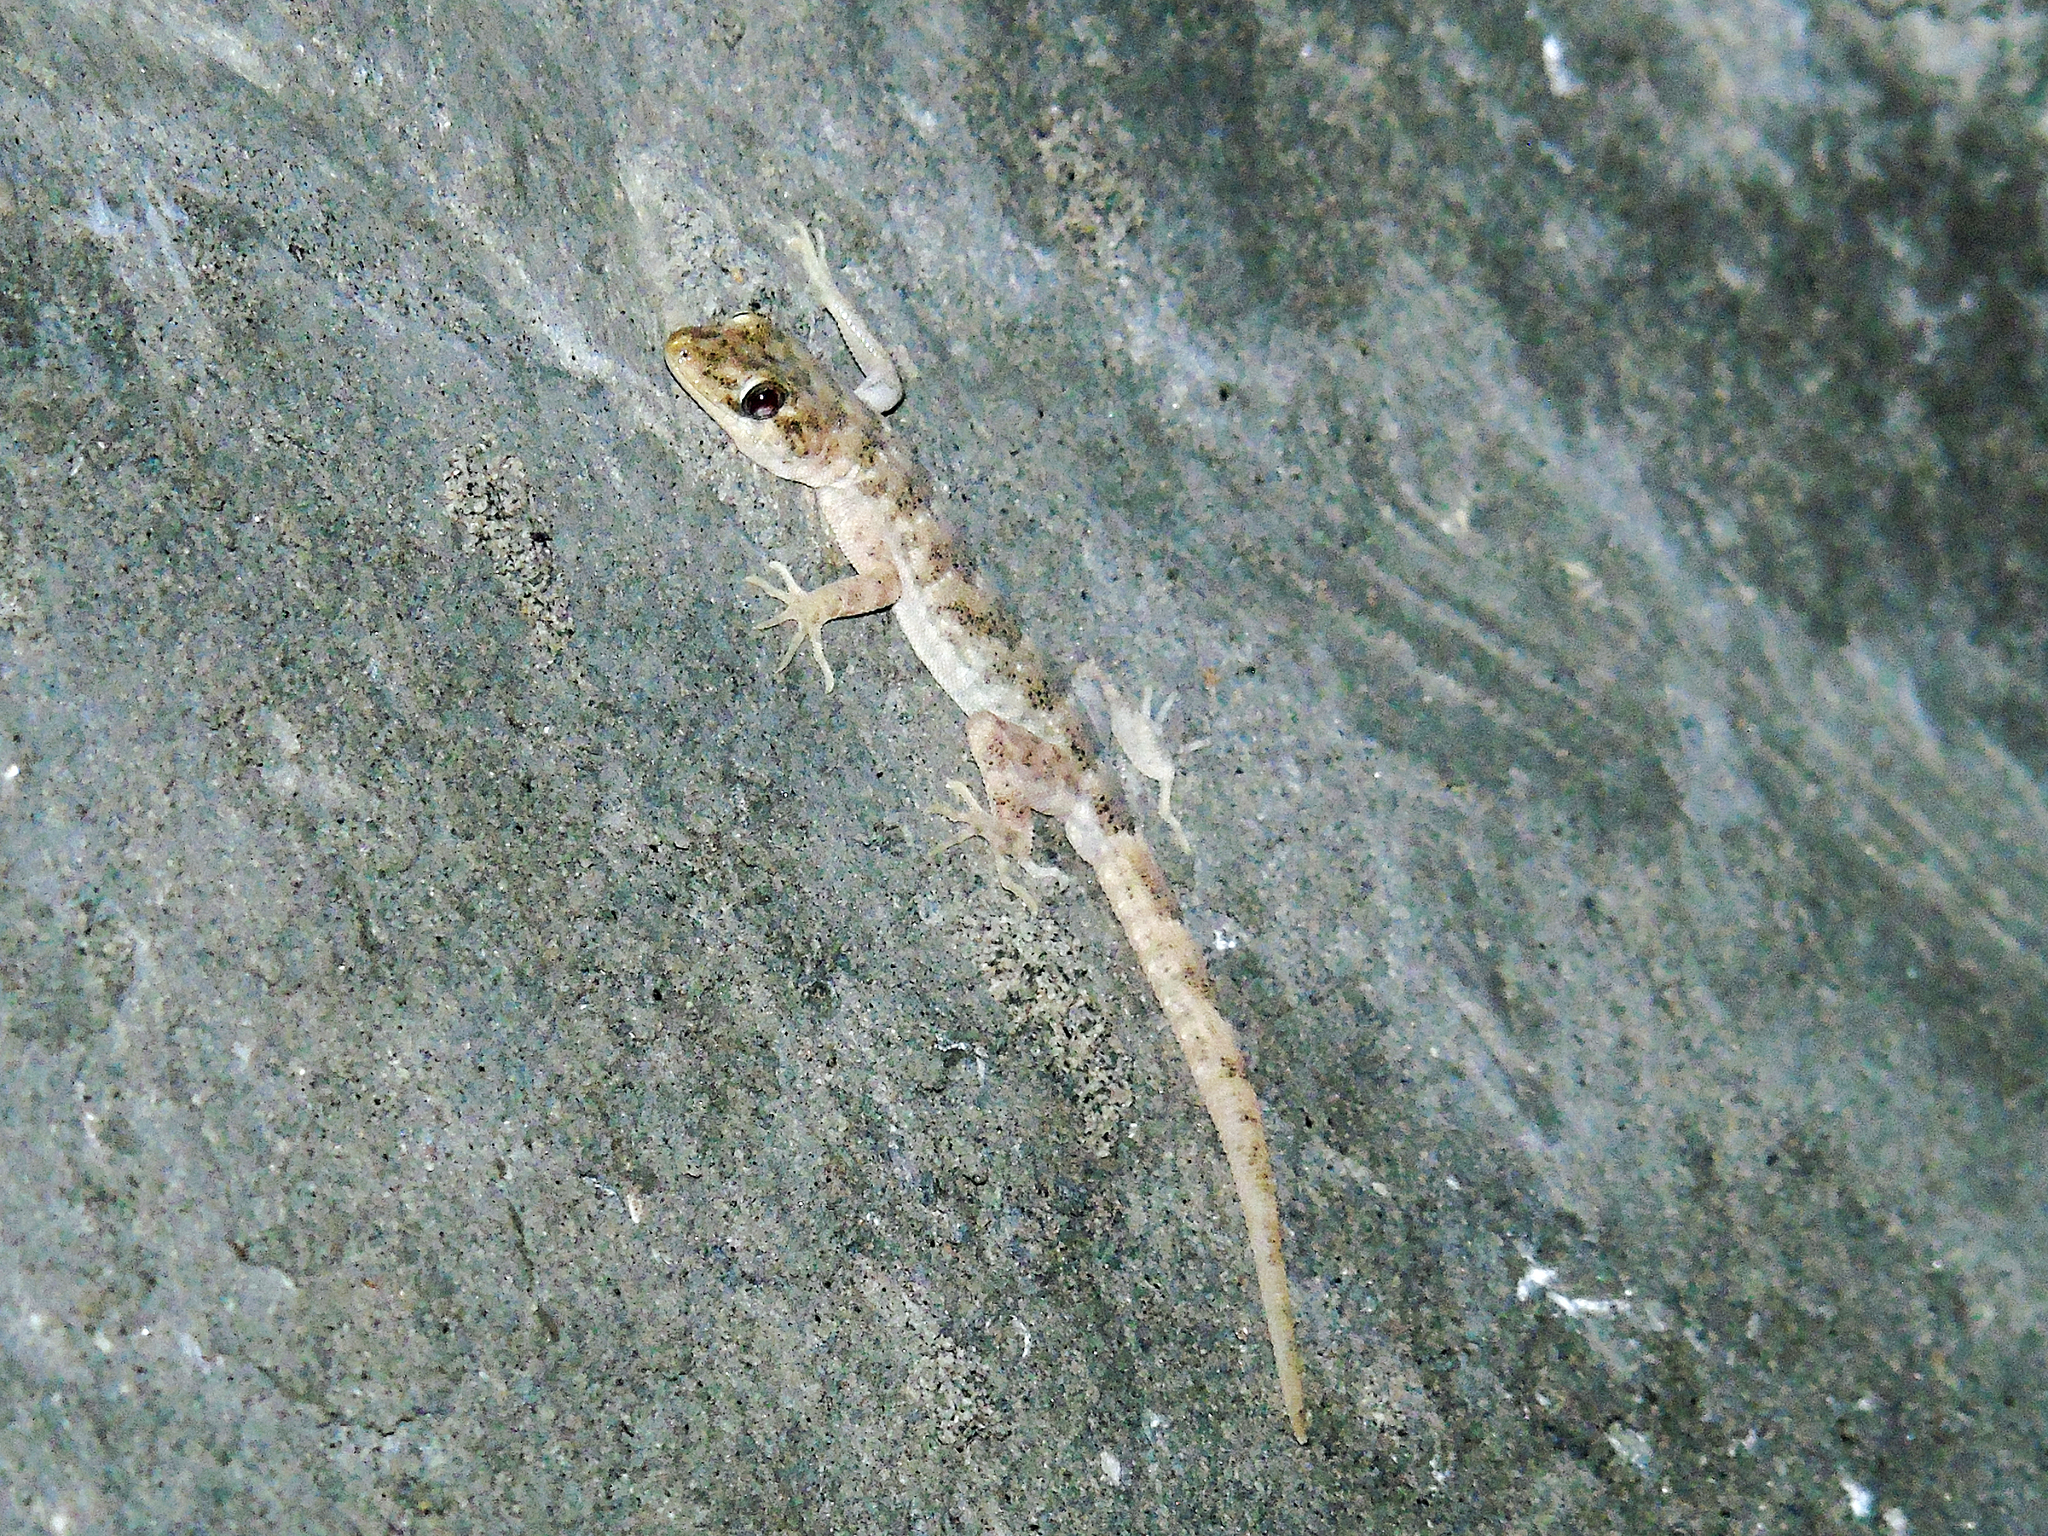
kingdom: Animalia
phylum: Chordata
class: Squamata
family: Gekkonidae
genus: Altiphylax
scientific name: Altiphylax stoliczkai
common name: Frontier bow-fingered gecko
